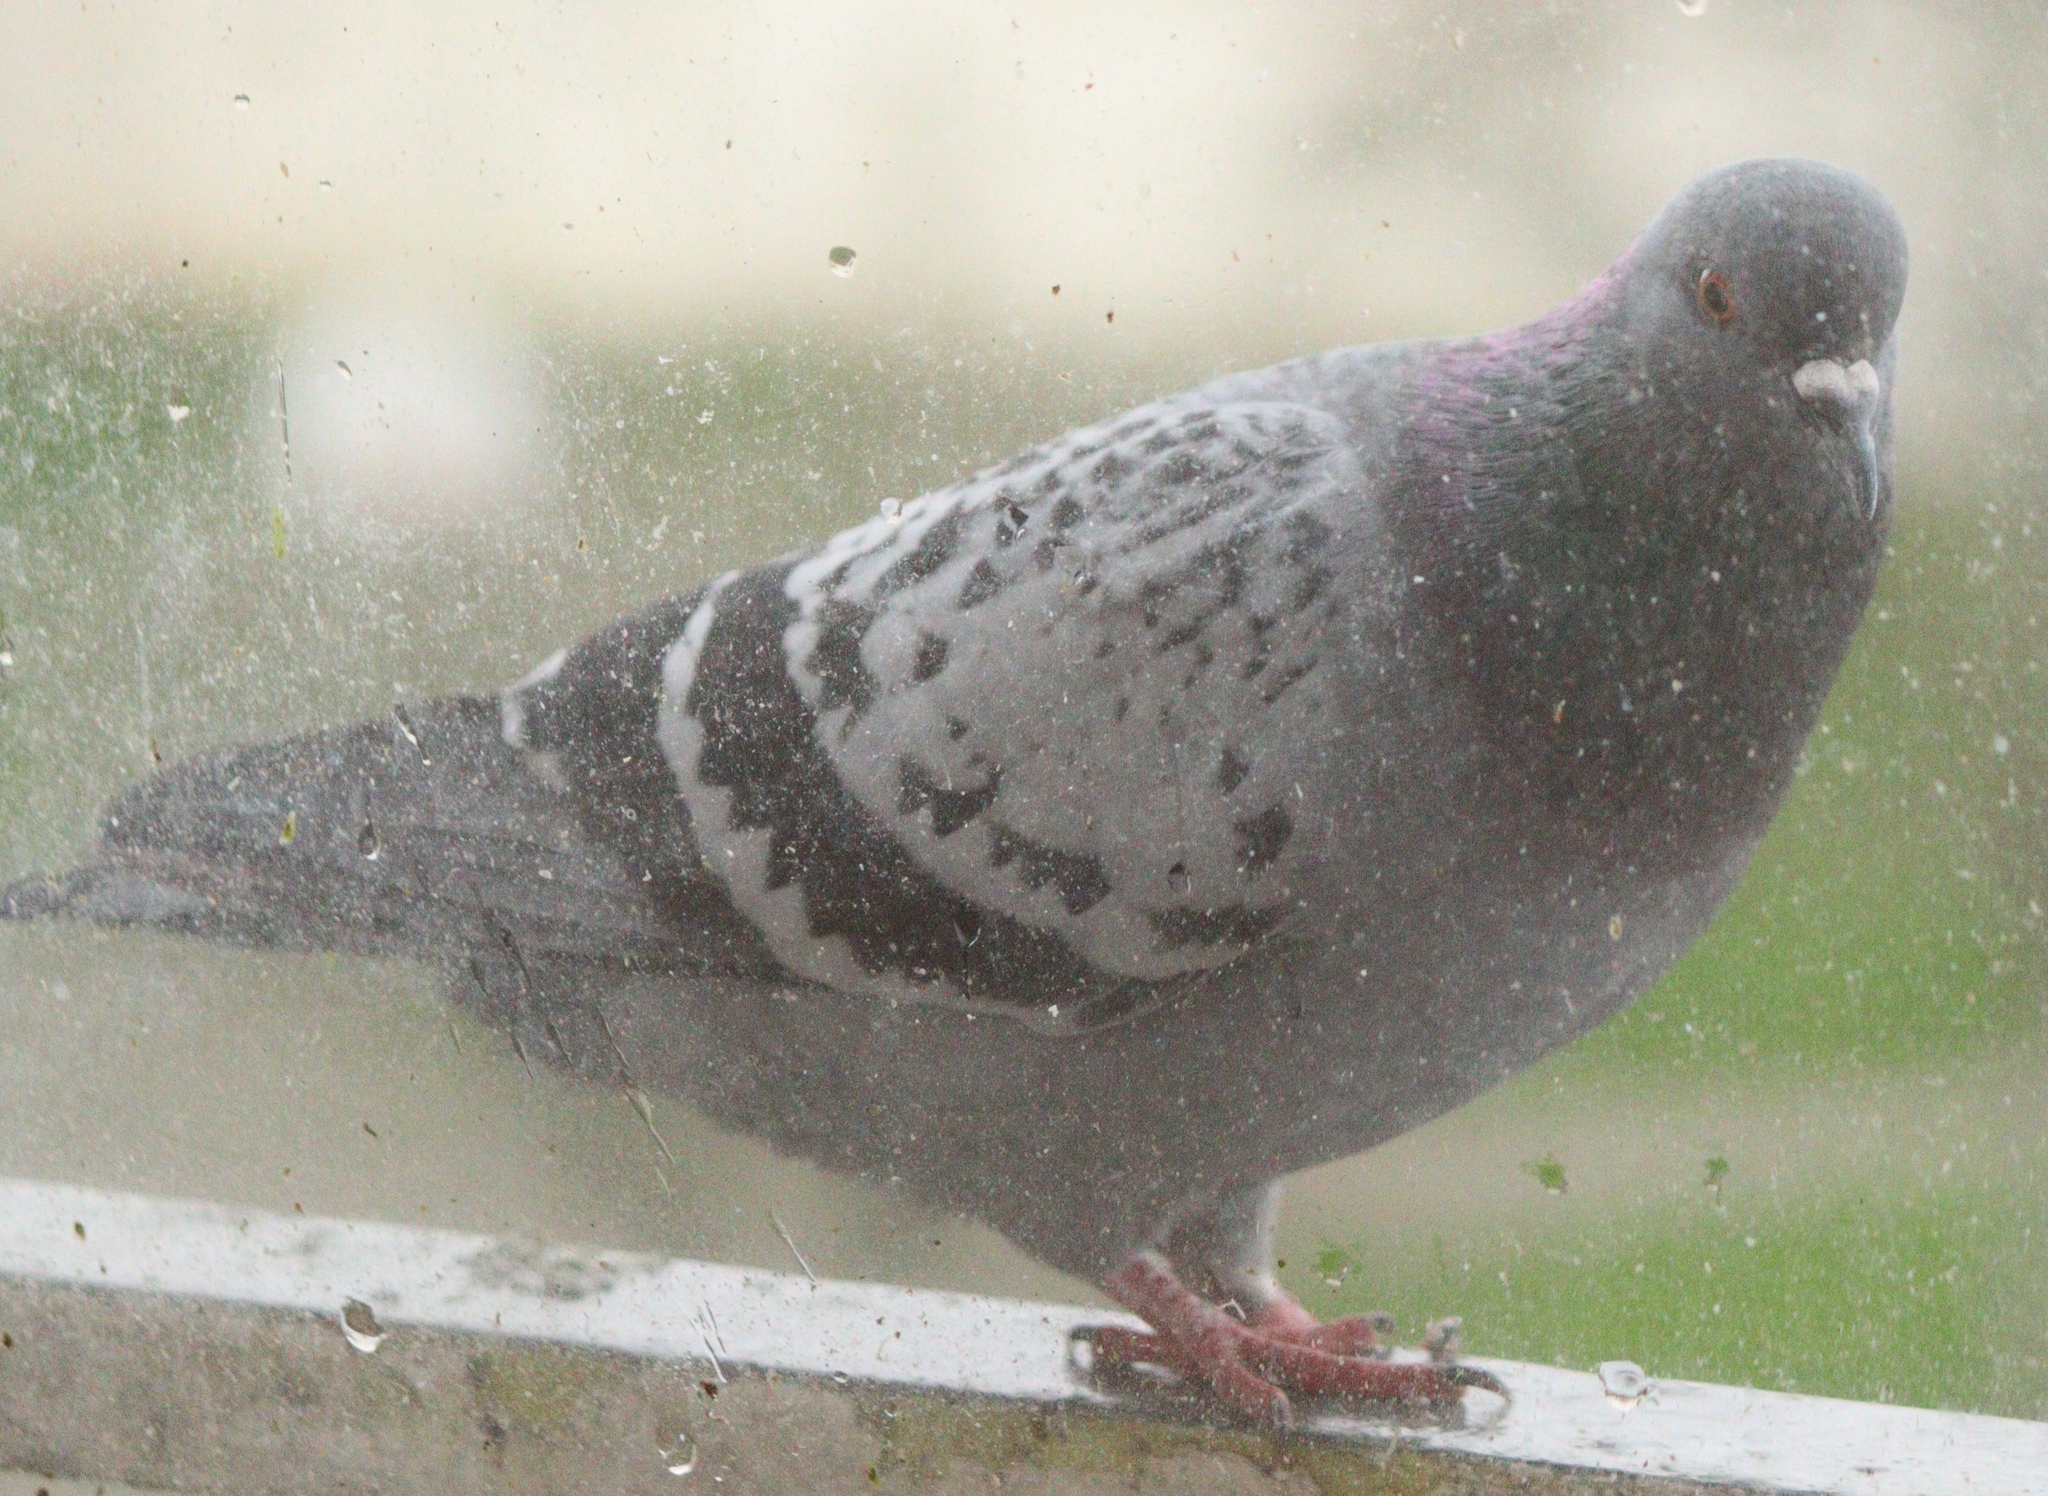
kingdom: Animalia
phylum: Chordata
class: Aves
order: Columbiformes
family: Columbidae
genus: Columba
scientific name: Columba livia
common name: Rock pigeon
